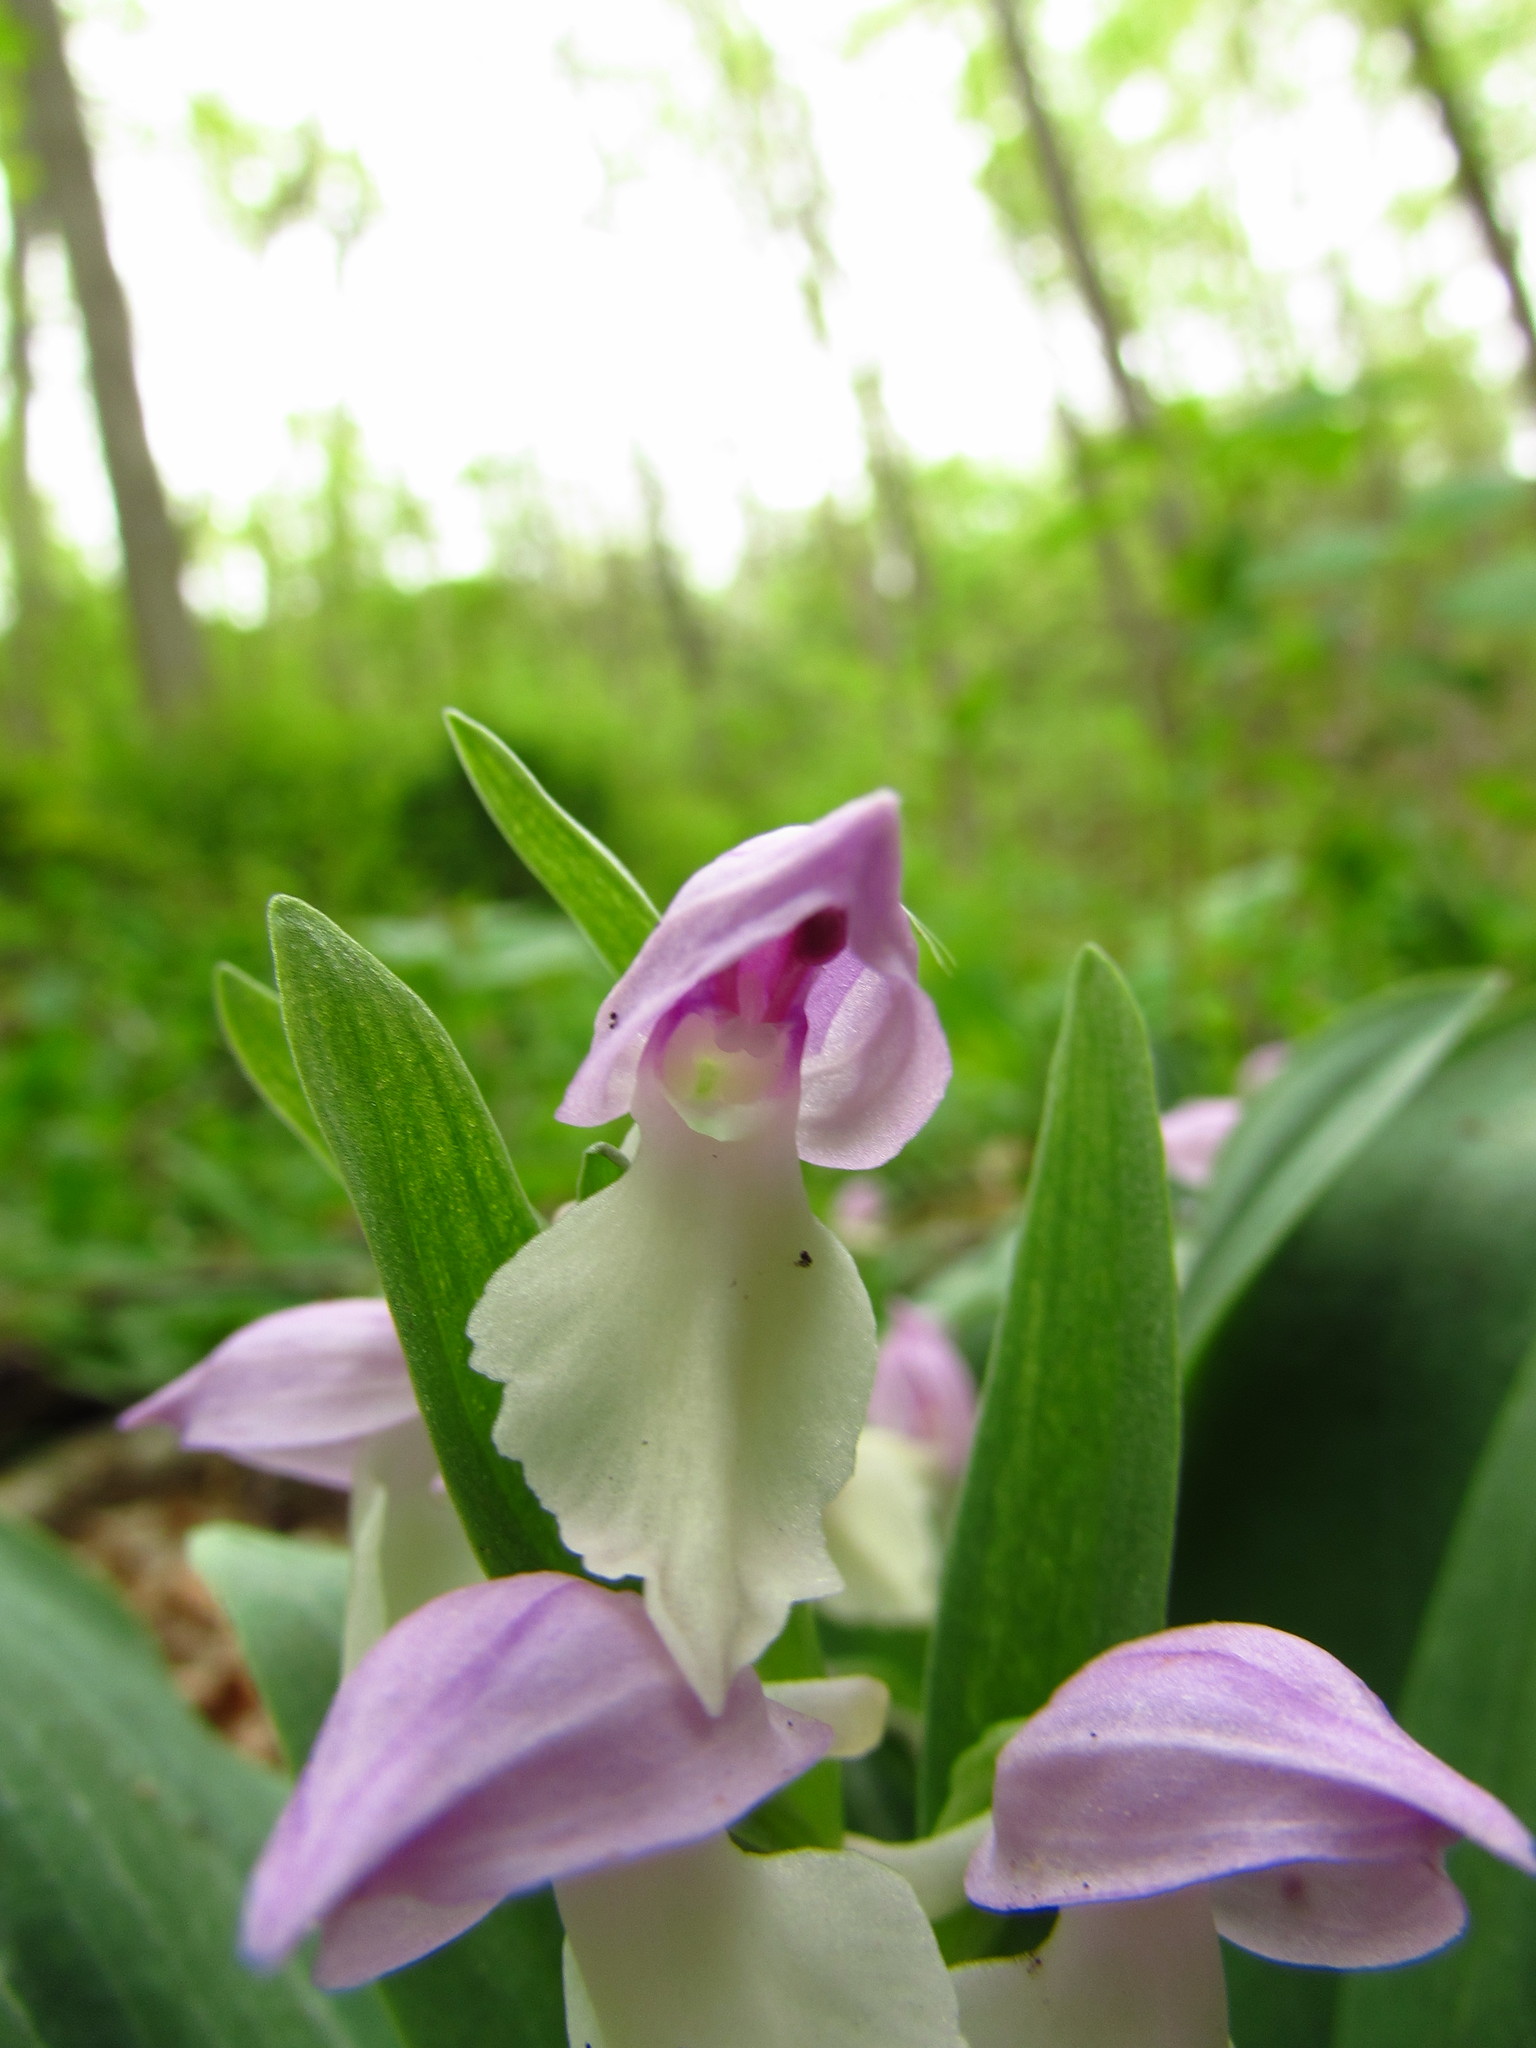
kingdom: Plantae
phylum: Tracheophyta
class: Liliopsida
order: Asparagales
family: Orchidaceae
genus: Galearis
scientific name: Galearis spectabilis
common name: Purple-hooded orchis
